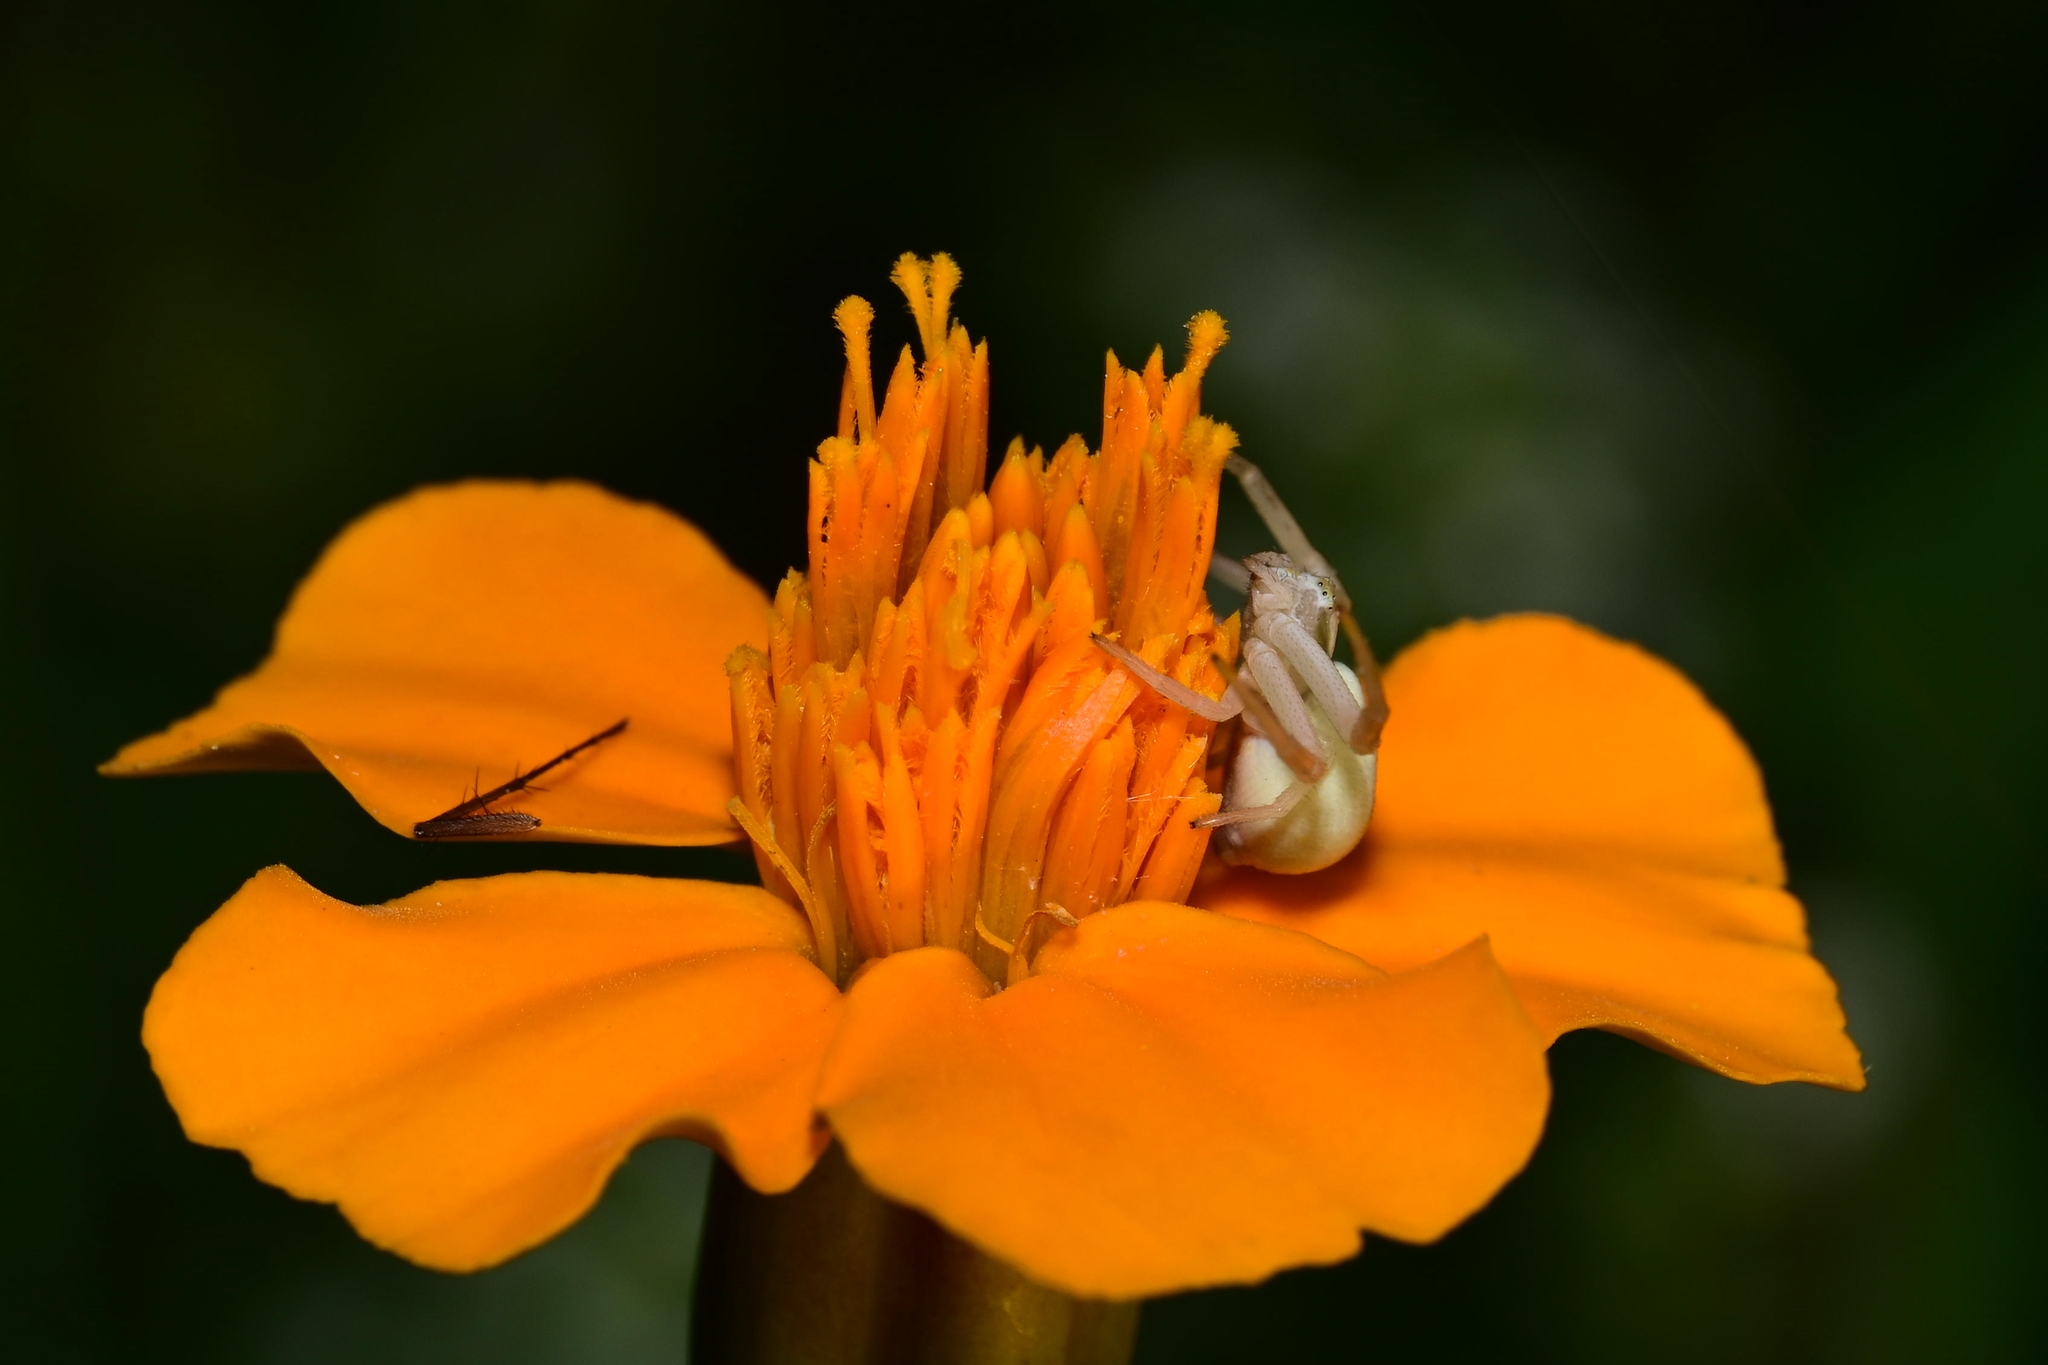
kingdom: Animalia
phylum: Arthropoda
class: Arachnida
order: Araneae
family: Thomisidae
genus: Misumena
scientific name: Misumena vatia
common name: Goldenrod crab spider
